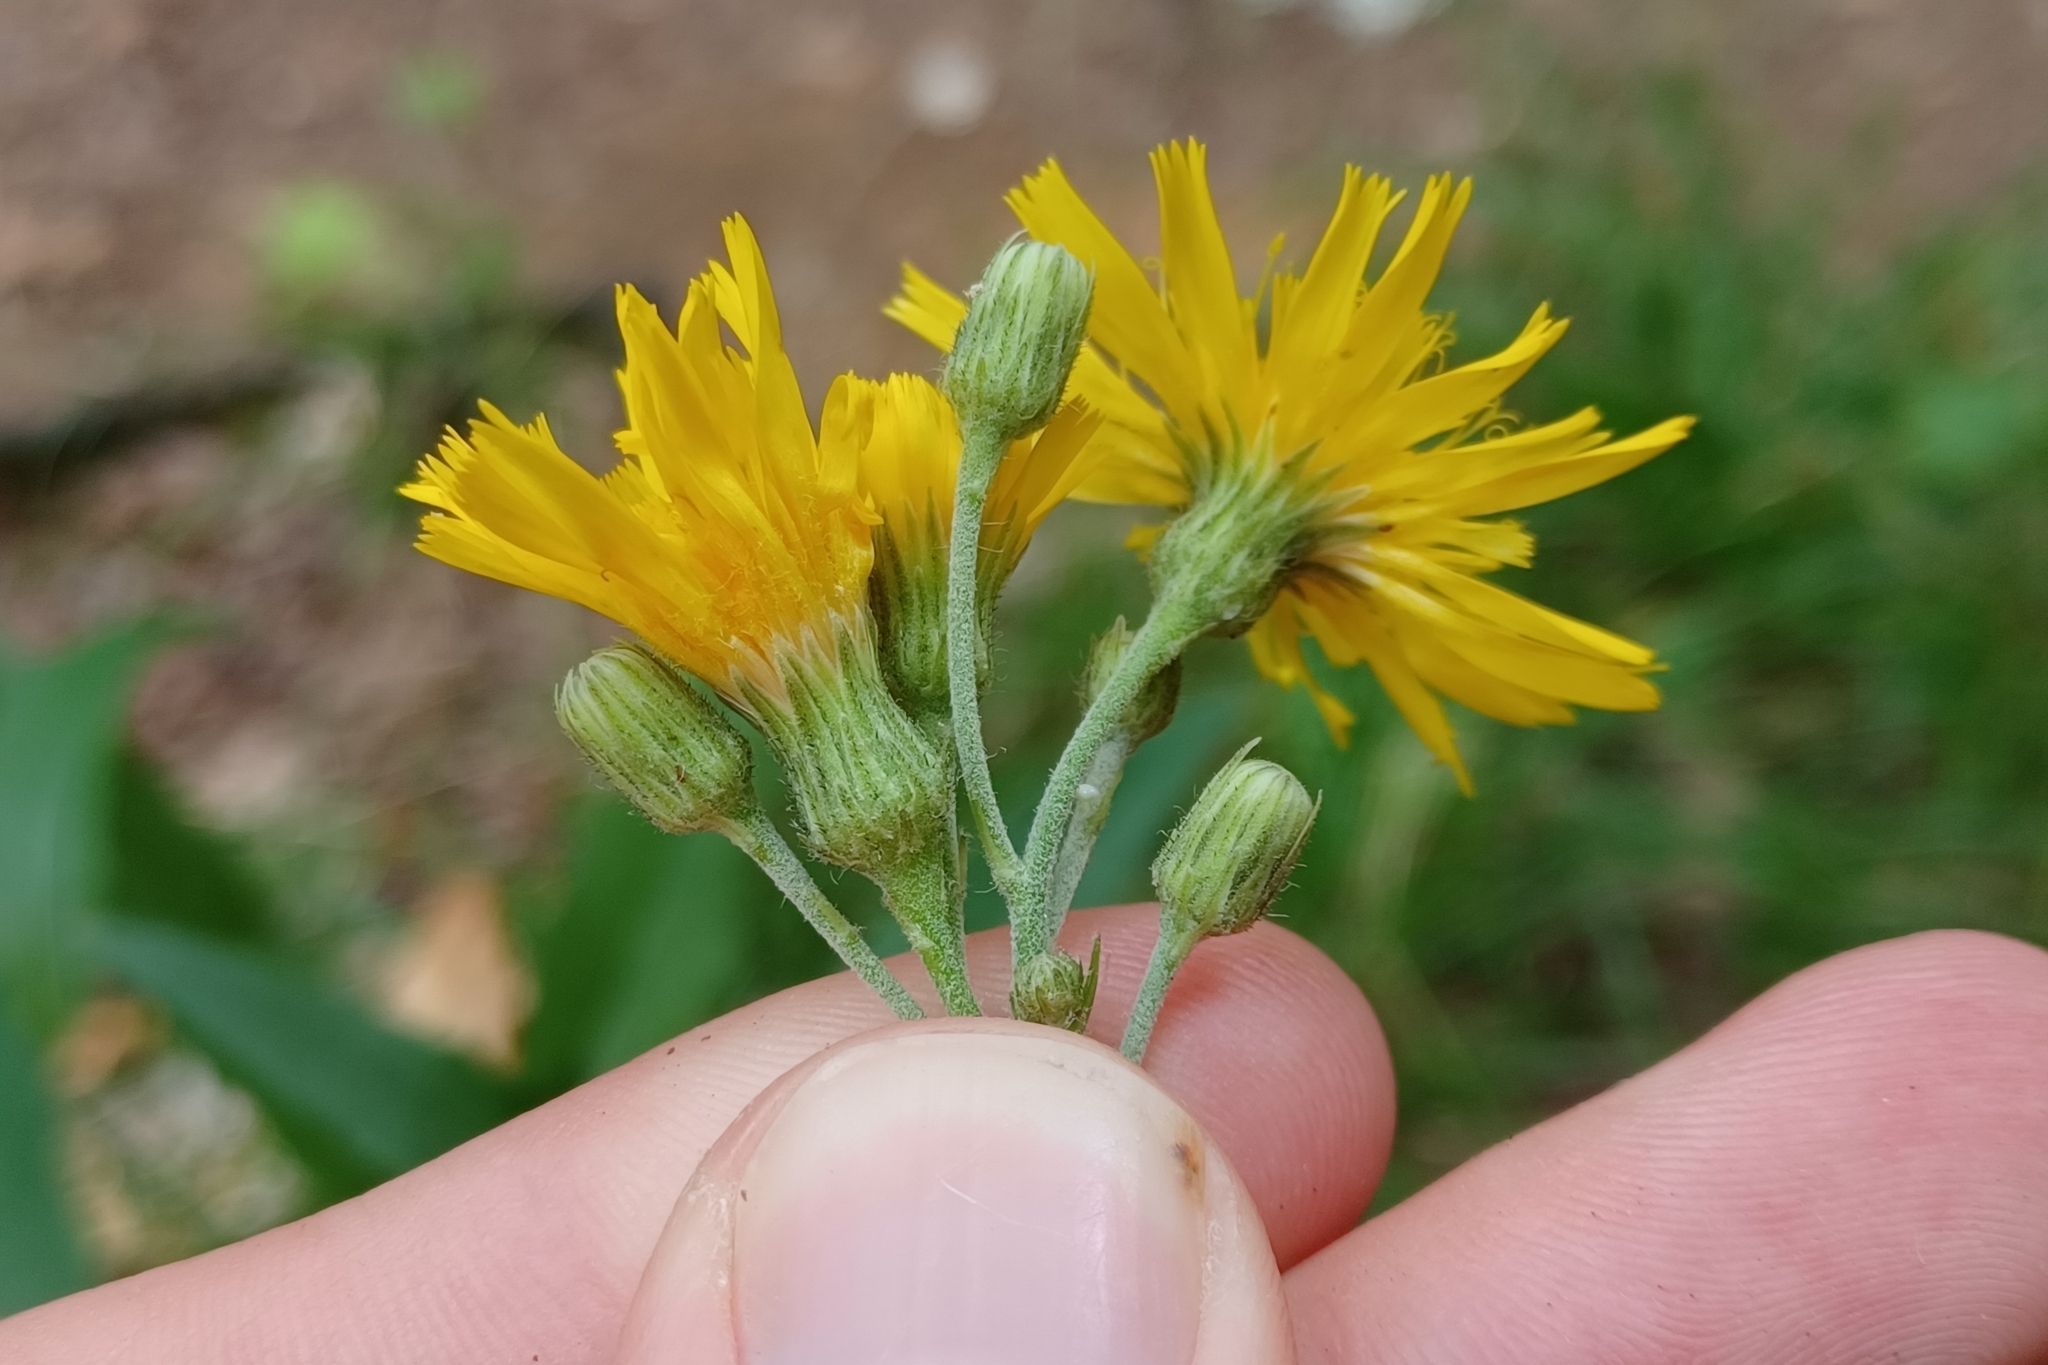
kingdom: Plantae
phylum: Tracheophyta
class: Magnoliopsida
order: Asterales
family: Asteraceae
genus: Hieracium
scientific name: Hieracium umbellatum
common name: Northern hawkweed
